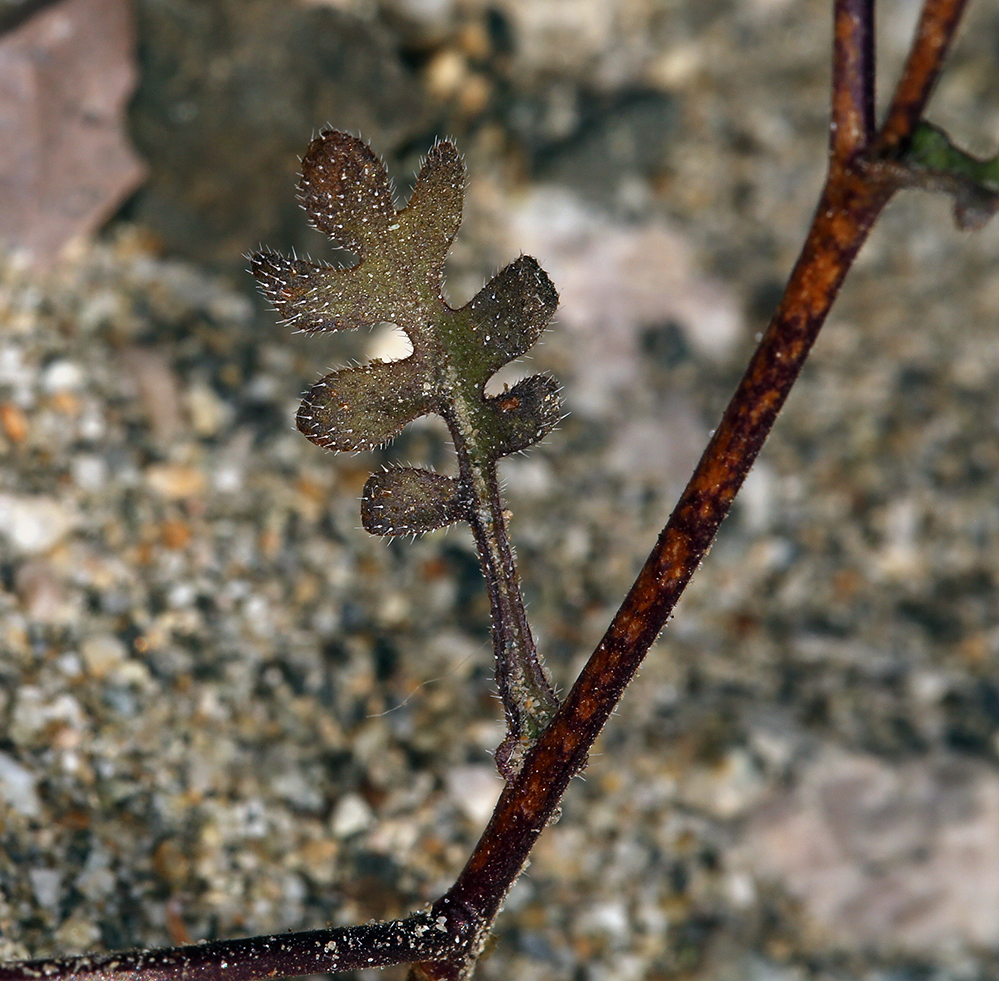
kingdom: Plantae
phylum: Tracheophyta
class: Magnoliopsida
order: Boraginales
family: Hydrophyllaceae
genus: Eucrypta
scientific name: Eucrypta micrantha
